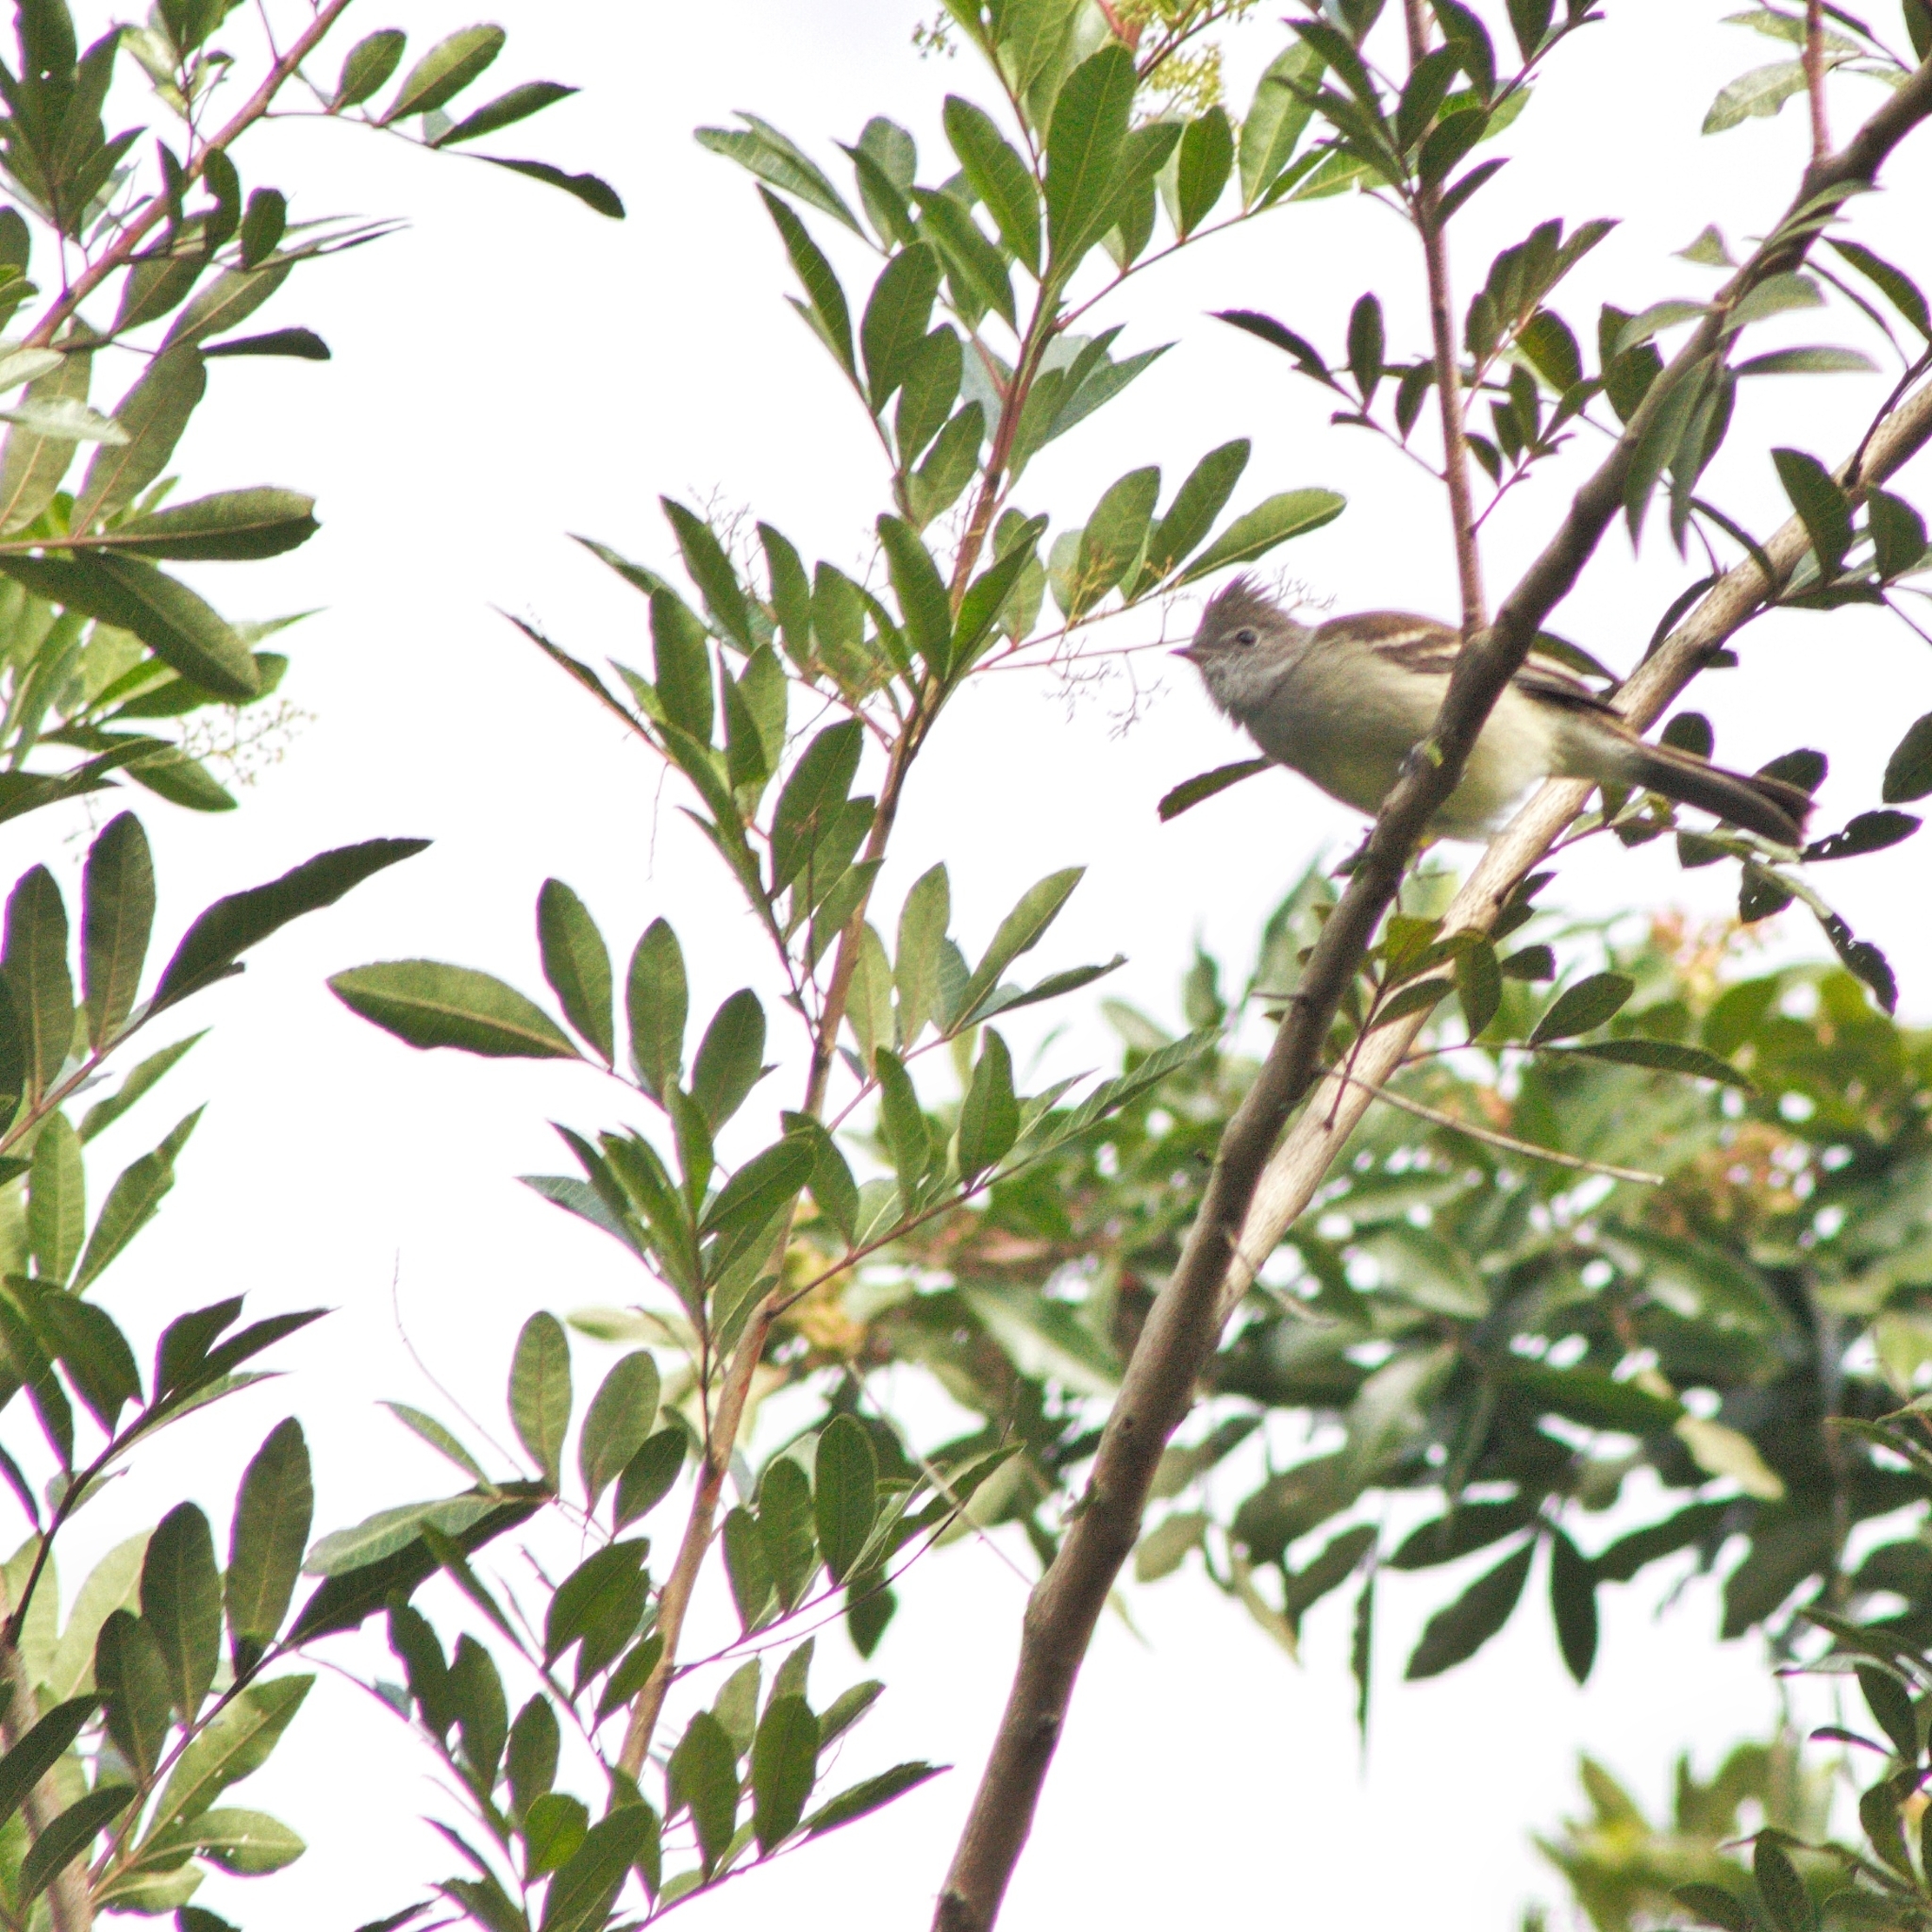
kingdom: Animalia
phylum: Chordata
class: Aves
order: Passeriformes
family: Tyrannidae
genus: Elaenia
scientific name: Elaenia flavogaster
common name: Yellow-bellied elaenia
